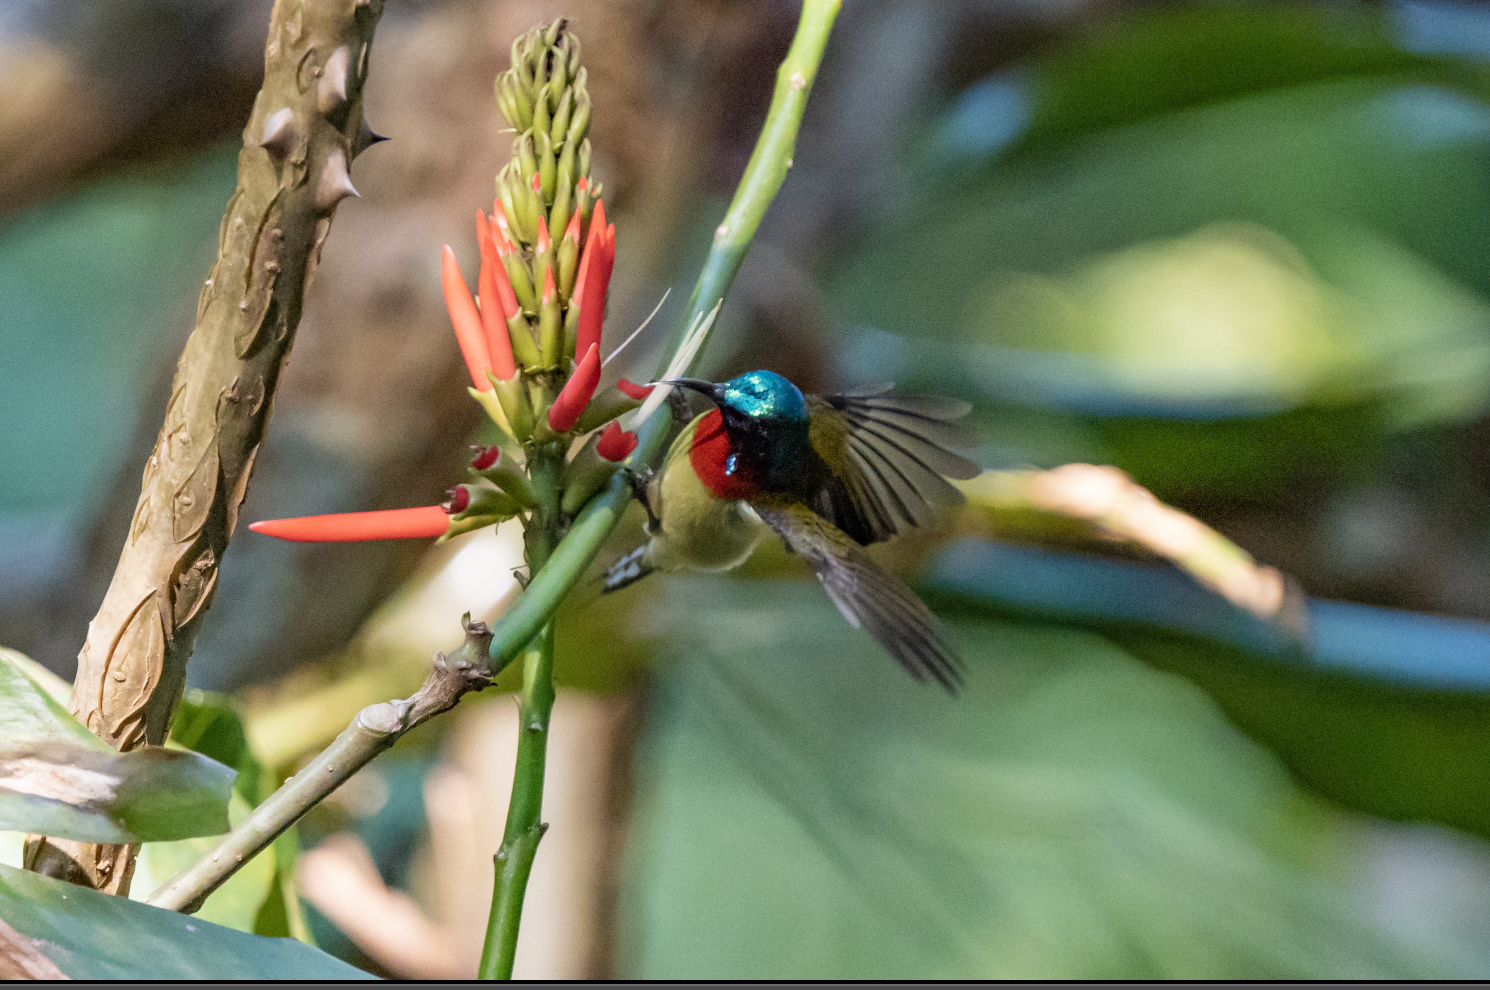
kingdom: Animalia
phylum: Chordata
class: Aves
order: Passeriformes
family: Nectariniidae
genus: Aethopyga
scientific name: Aethopyga christinae
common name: Fork-tailed sunbird
